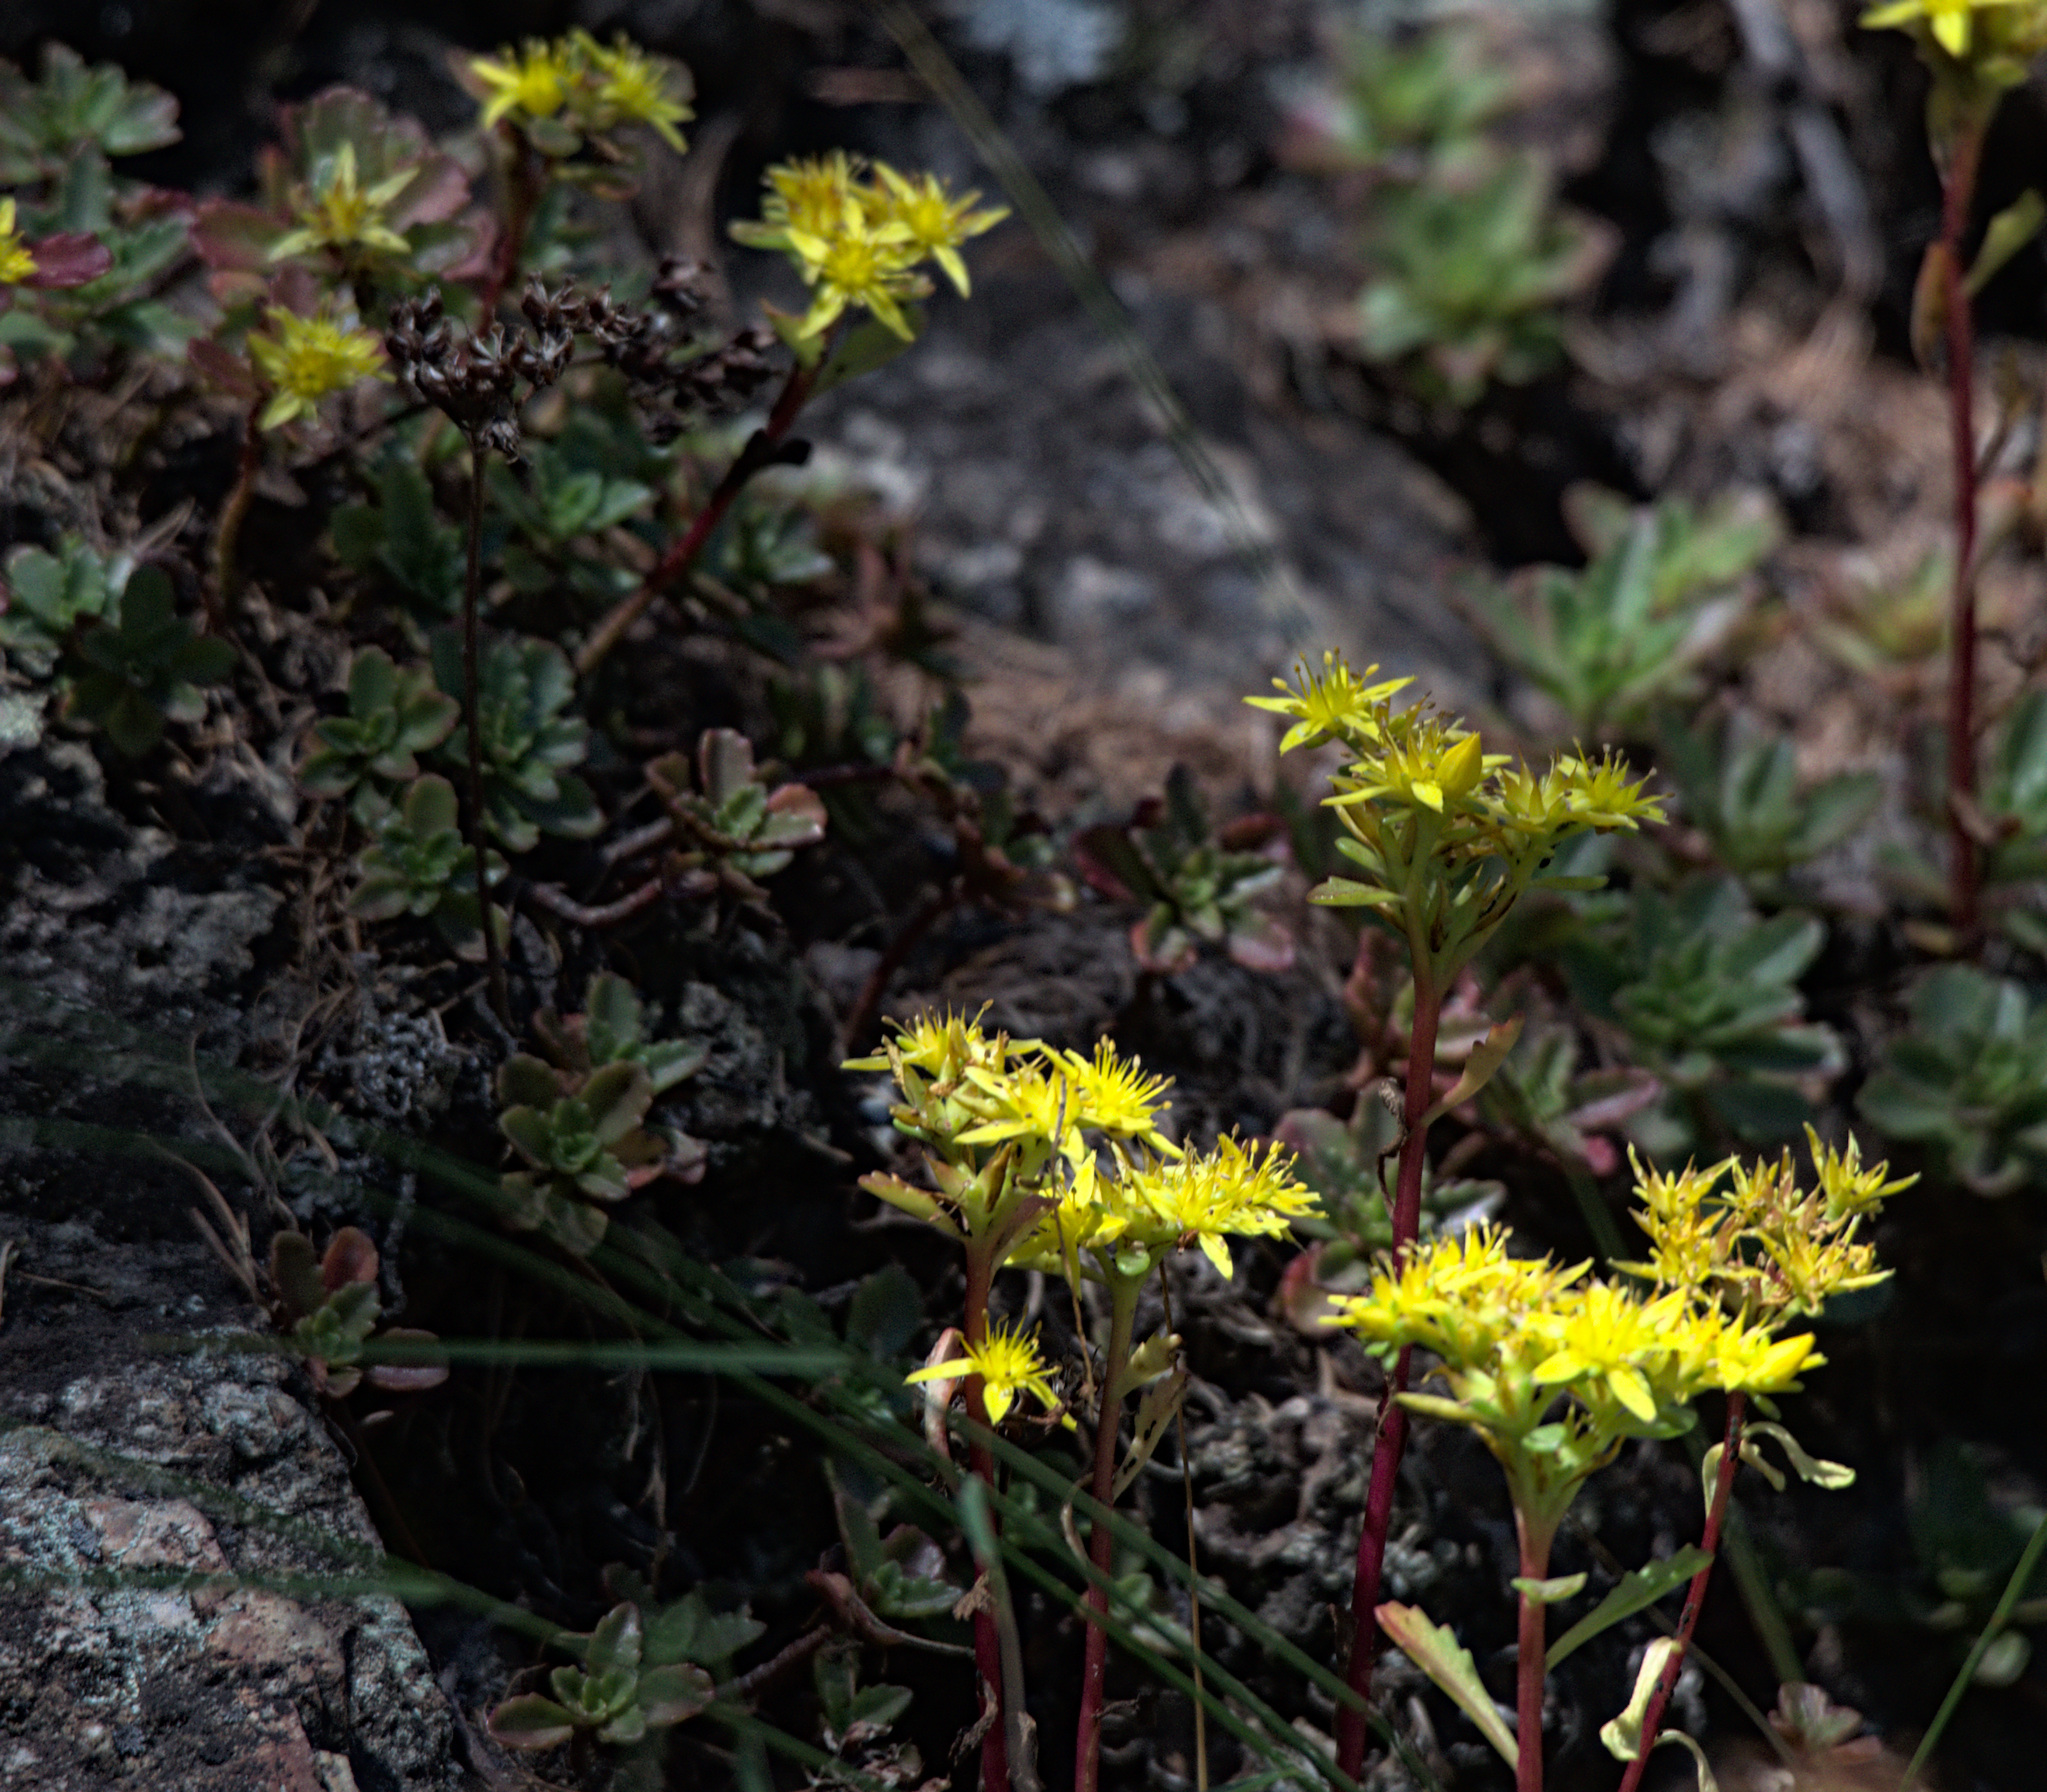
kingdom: Plantae
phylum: Tracheophyta
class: Magnoliopsida
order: Saxifragales
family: Crassulaceae
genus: Phedimus
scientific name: Phedimus hybridus
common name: Hybrid stonecrop
